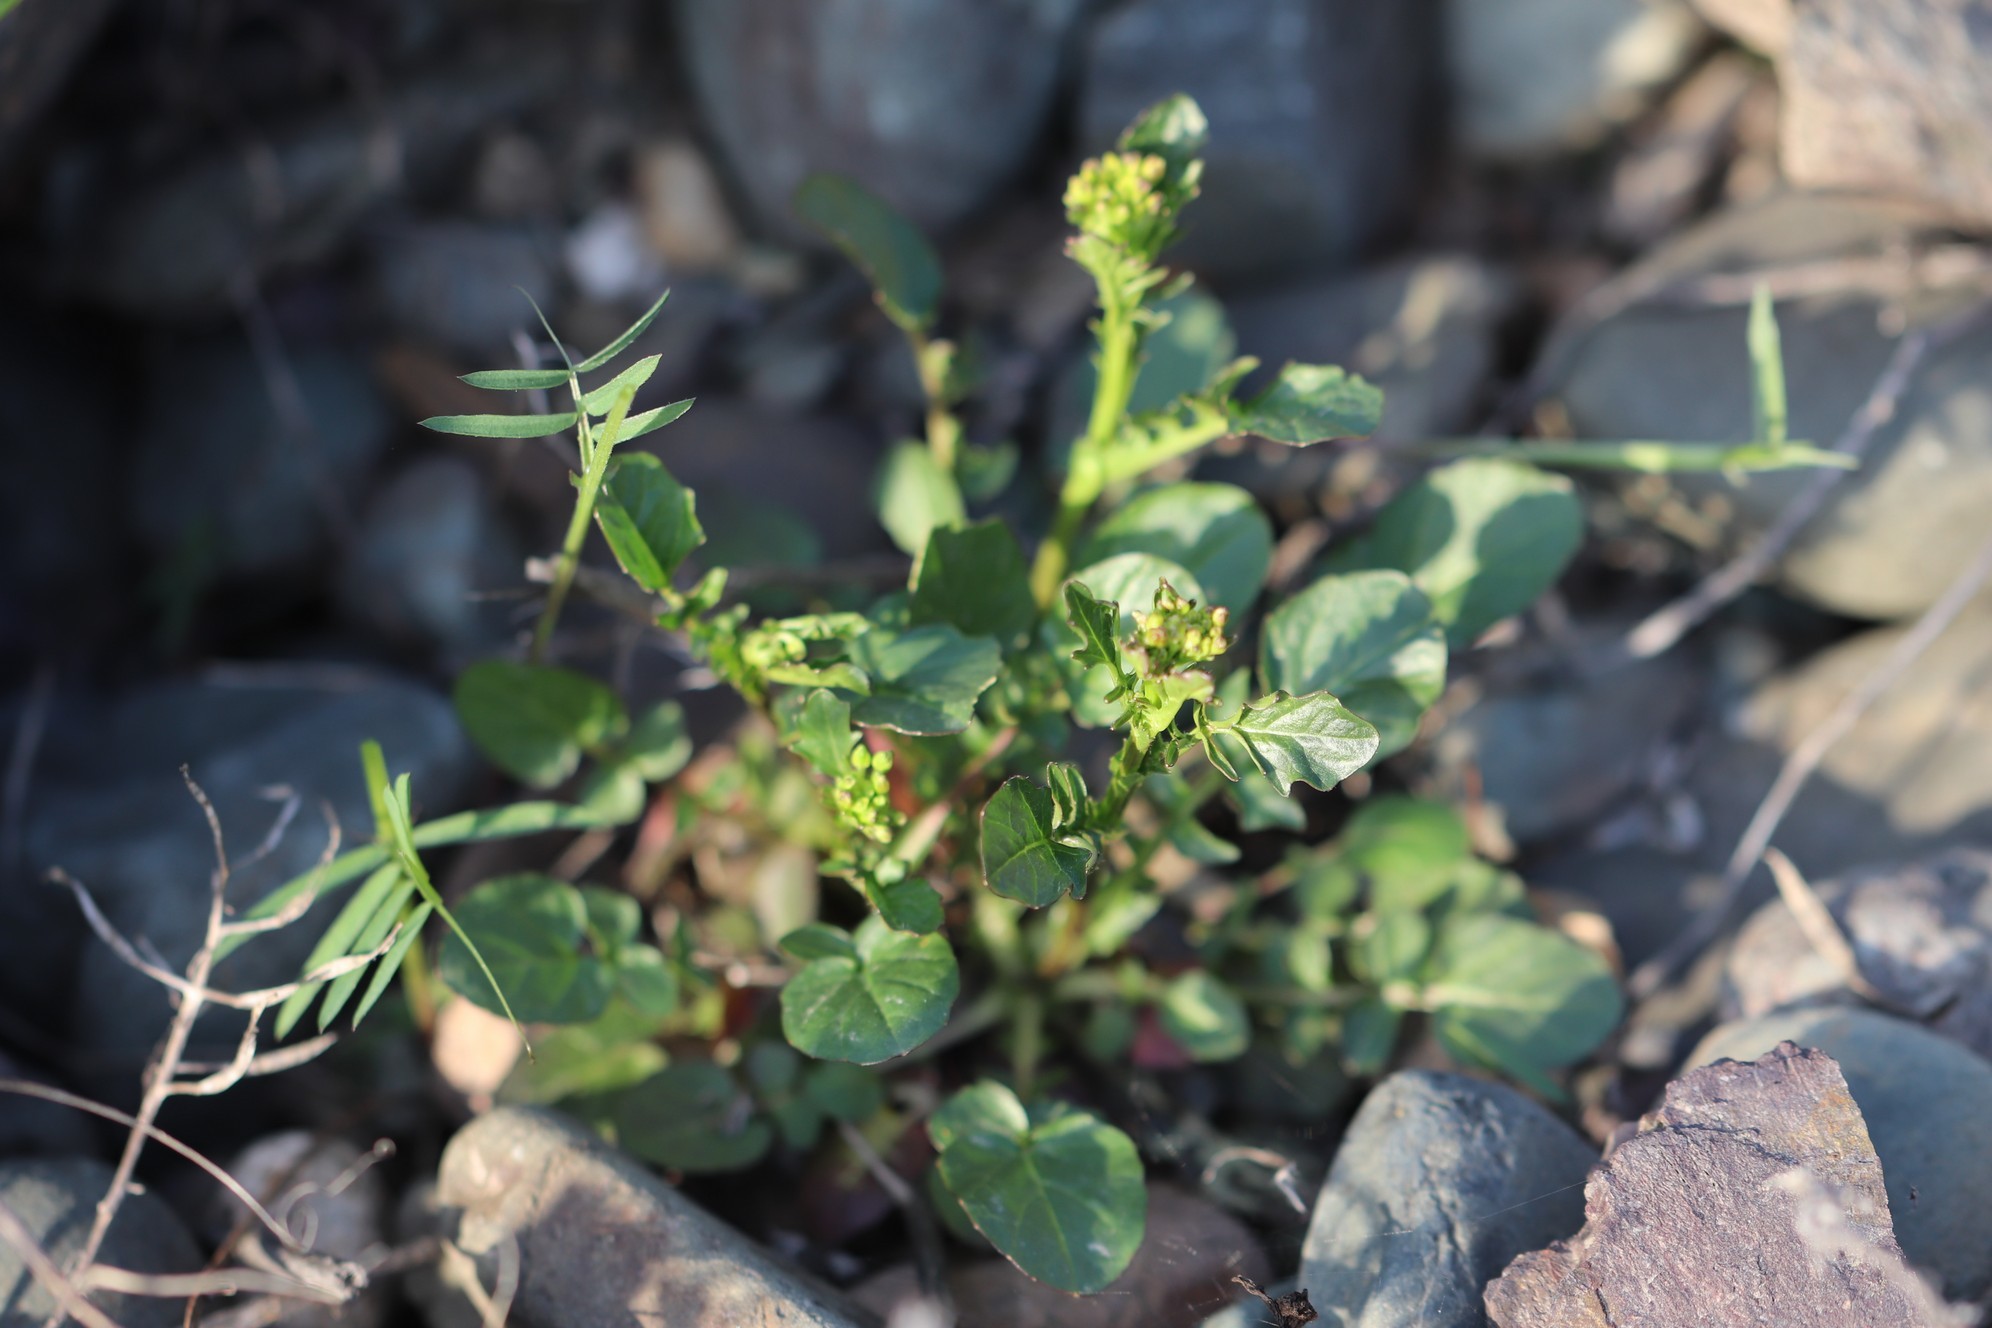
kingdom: Plantae
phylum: Tracheophyta
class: Magnoliopsida
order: Brassicales
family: Brassicaceae
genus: Barbarea
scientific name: Barbarea vulgaris
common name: Cressy-greens
